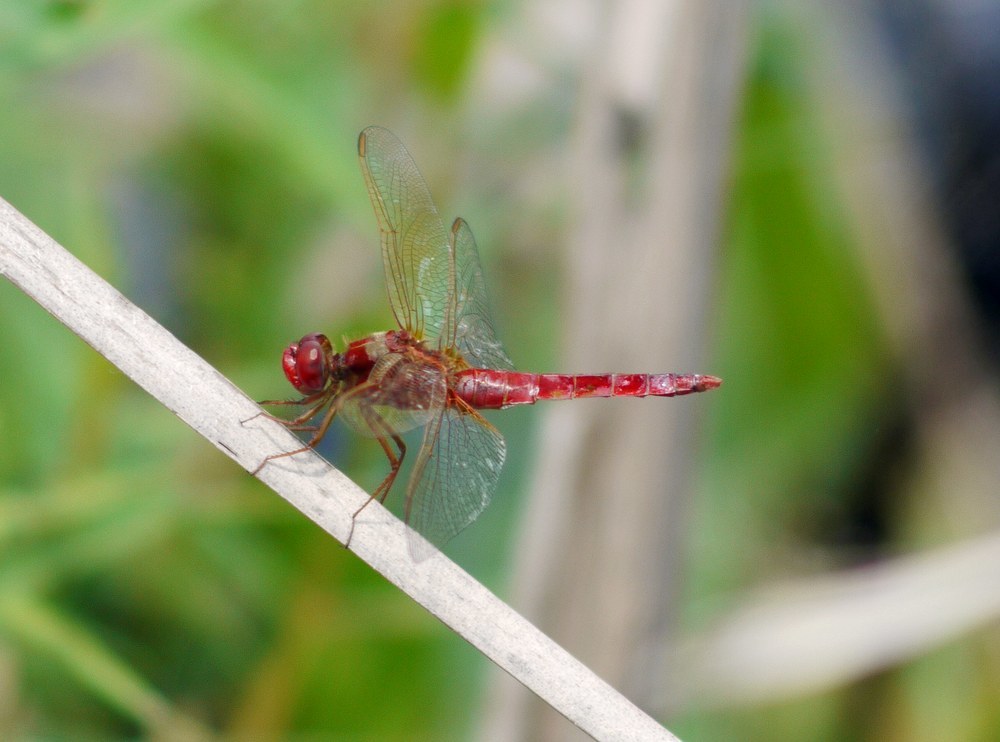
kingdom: Animalia
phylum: Arthropoda
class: Insecta
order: Odonata
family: Libellulidae
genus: Crocothemis
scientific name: Crocothemis erythraea
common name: Scarlet dragonfly
